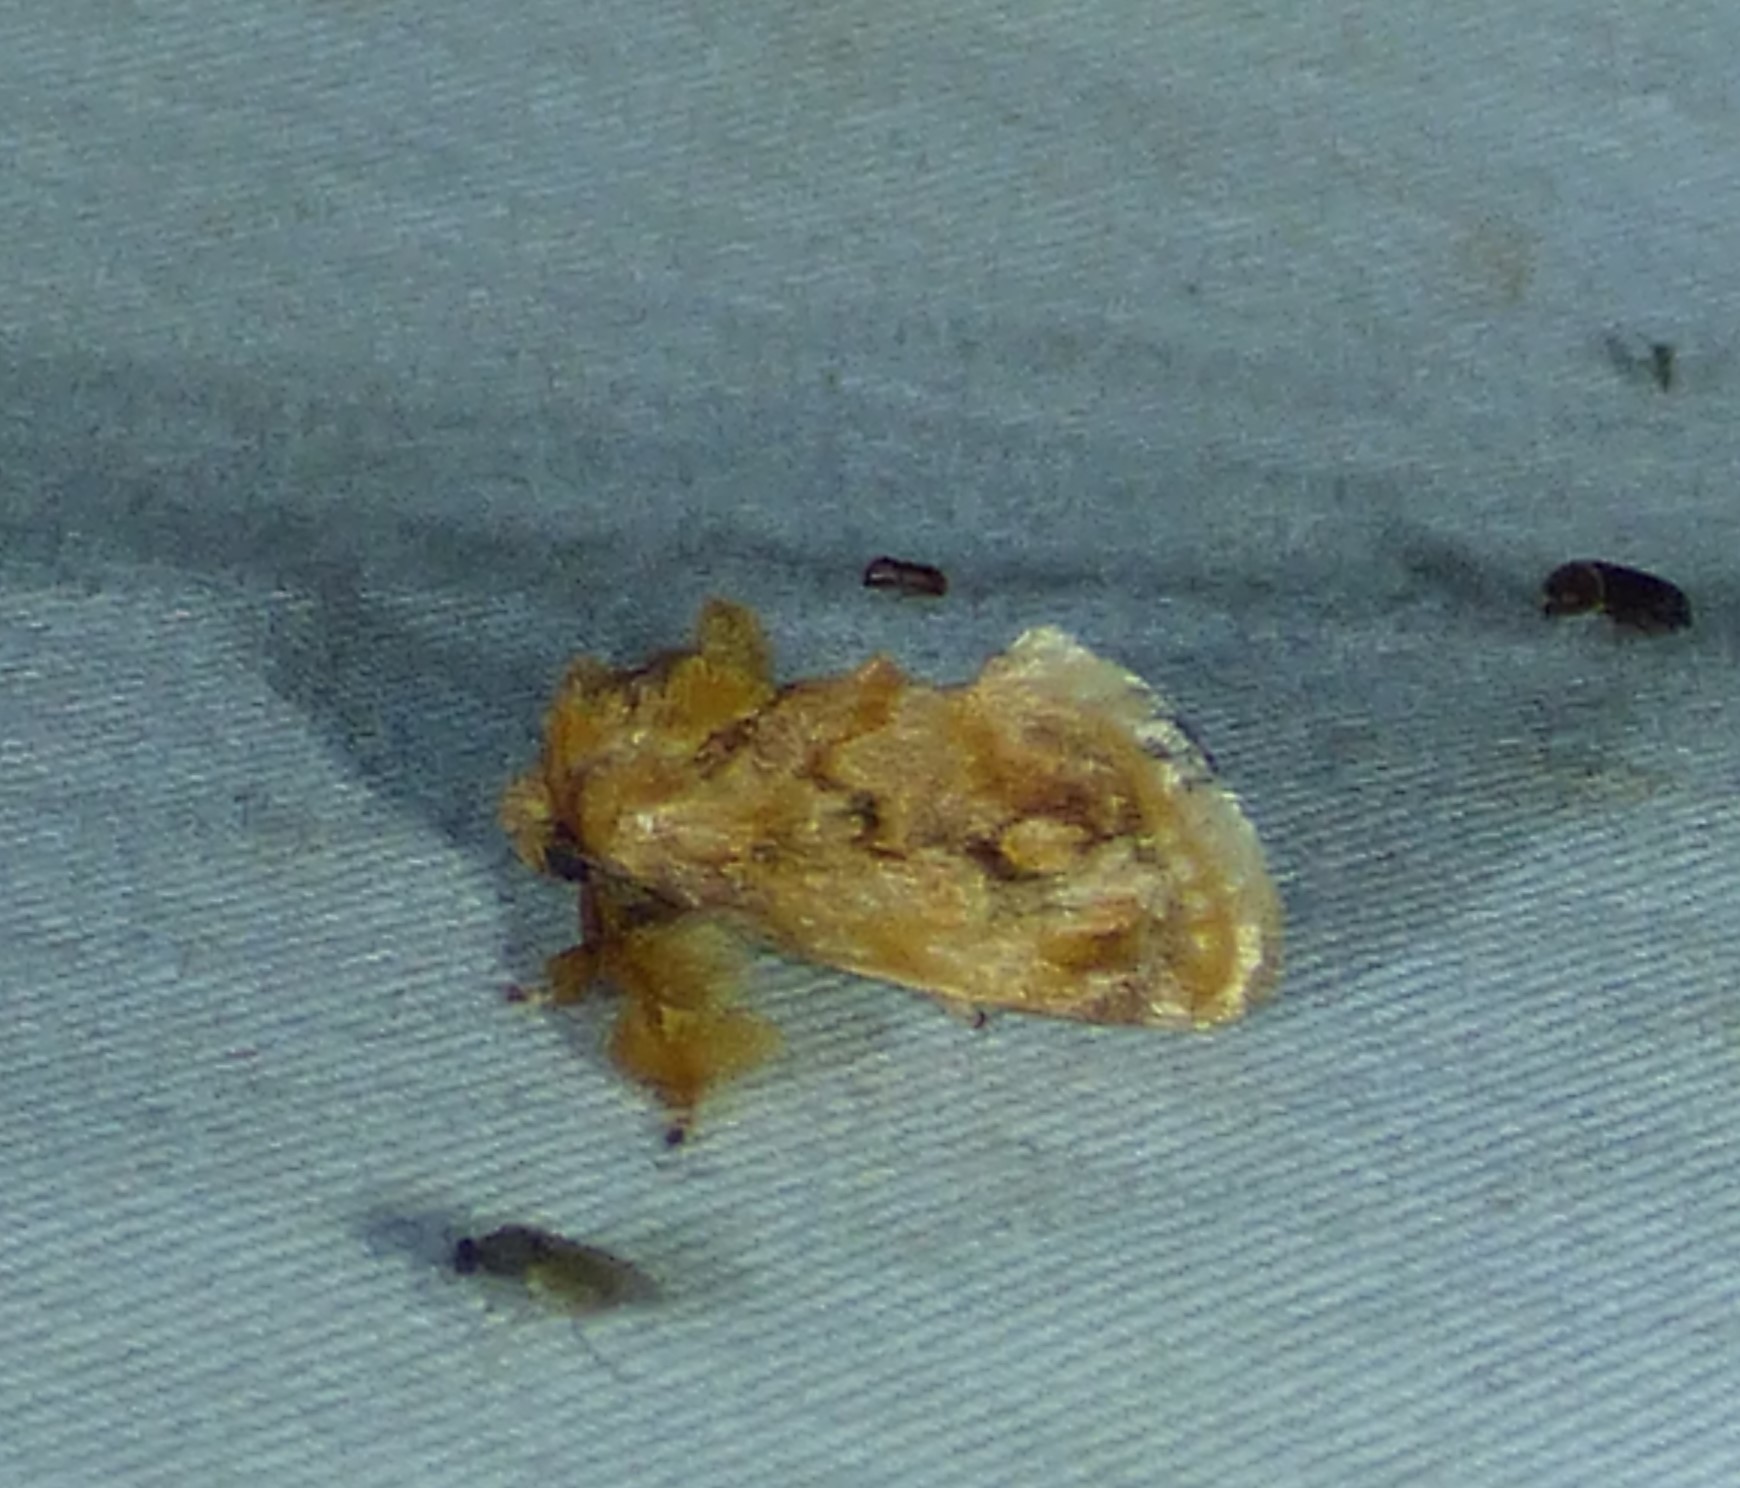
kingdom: Animalia
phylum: Arthropoda
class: Insecta
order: Lepidoptera
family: Limacodidae
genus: Isochaetes
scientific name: Isochaetes beutenmuelleri
